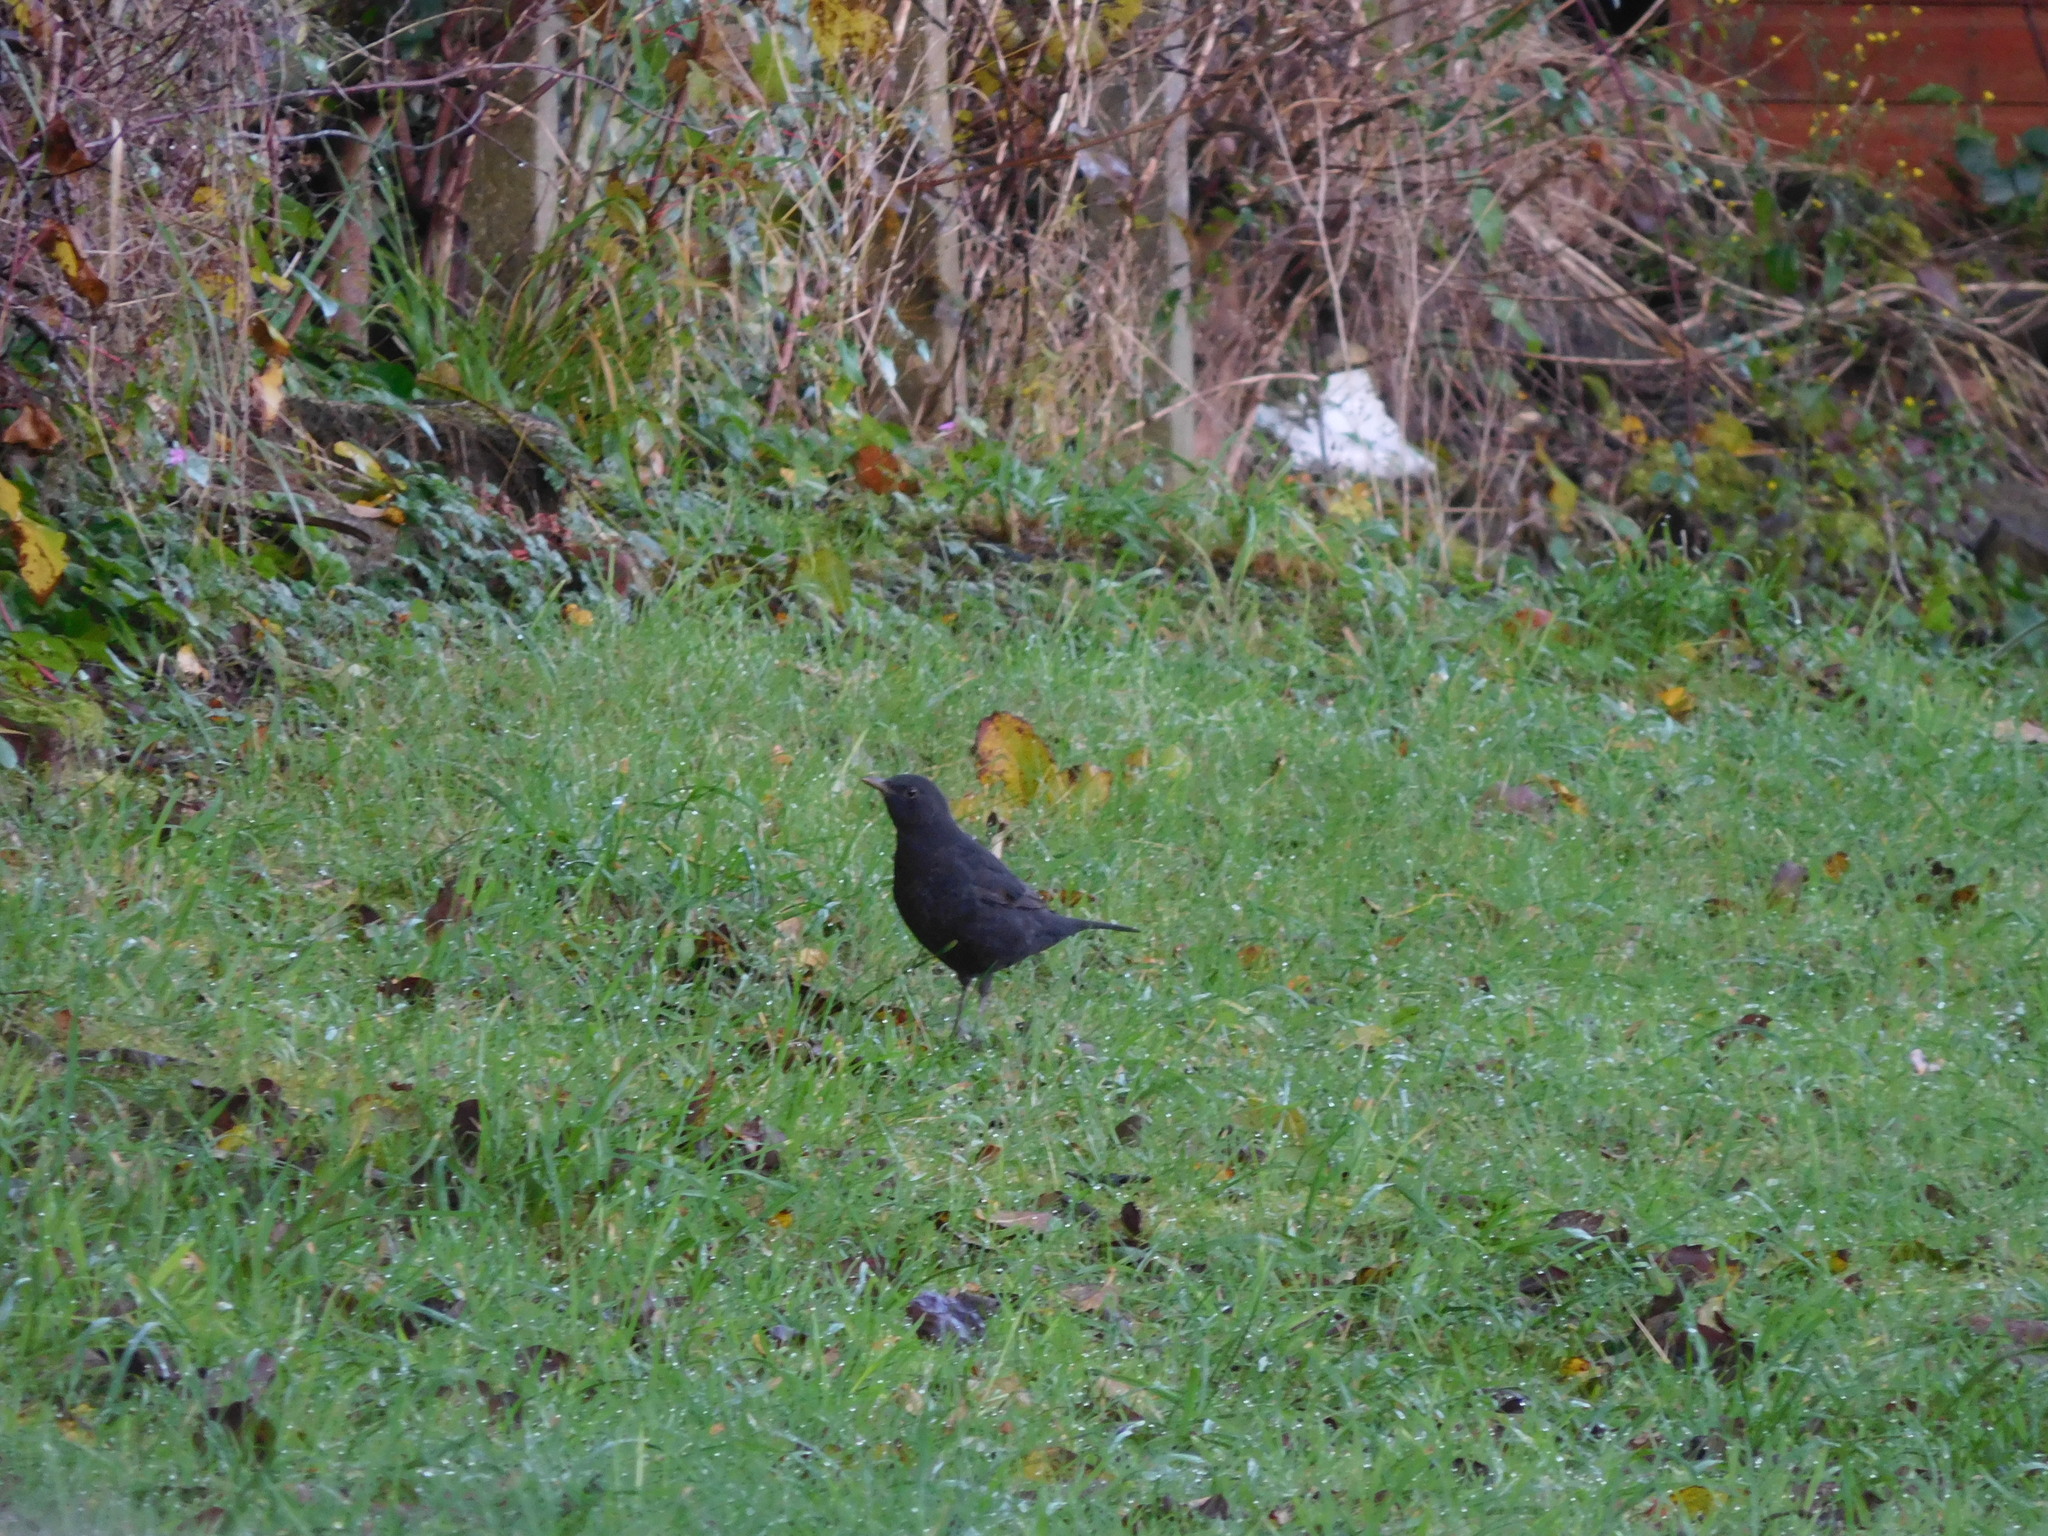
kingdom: Animalia
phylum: Chordata
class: Aves
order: Passeriformes
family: Turdidae
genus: Turdus
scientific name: Turdus merula
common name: Common blackbird
